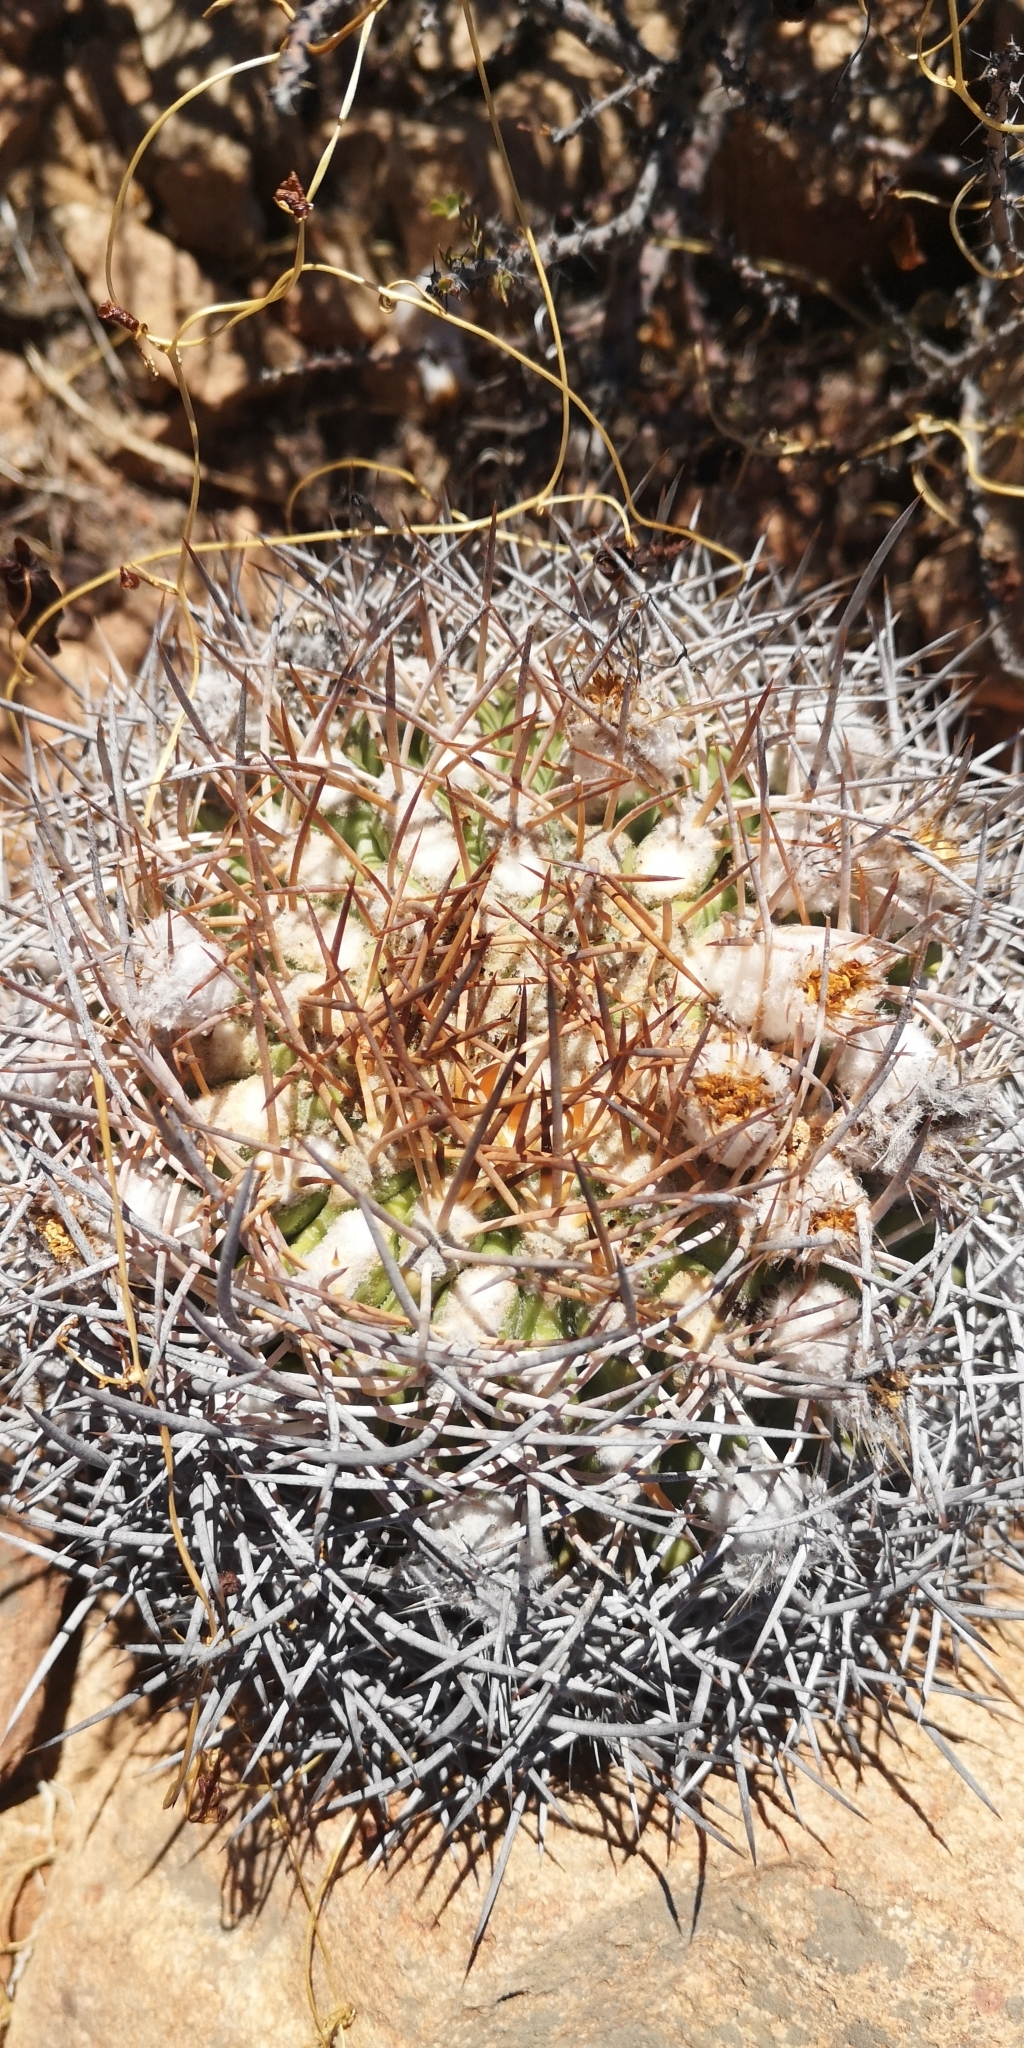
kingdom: Plantae
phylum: Tracheophyta
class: Magnoliopsida
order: Caryophyllales
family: Cactaceae
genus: Eriosyce
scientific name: Eriosyce aurata
